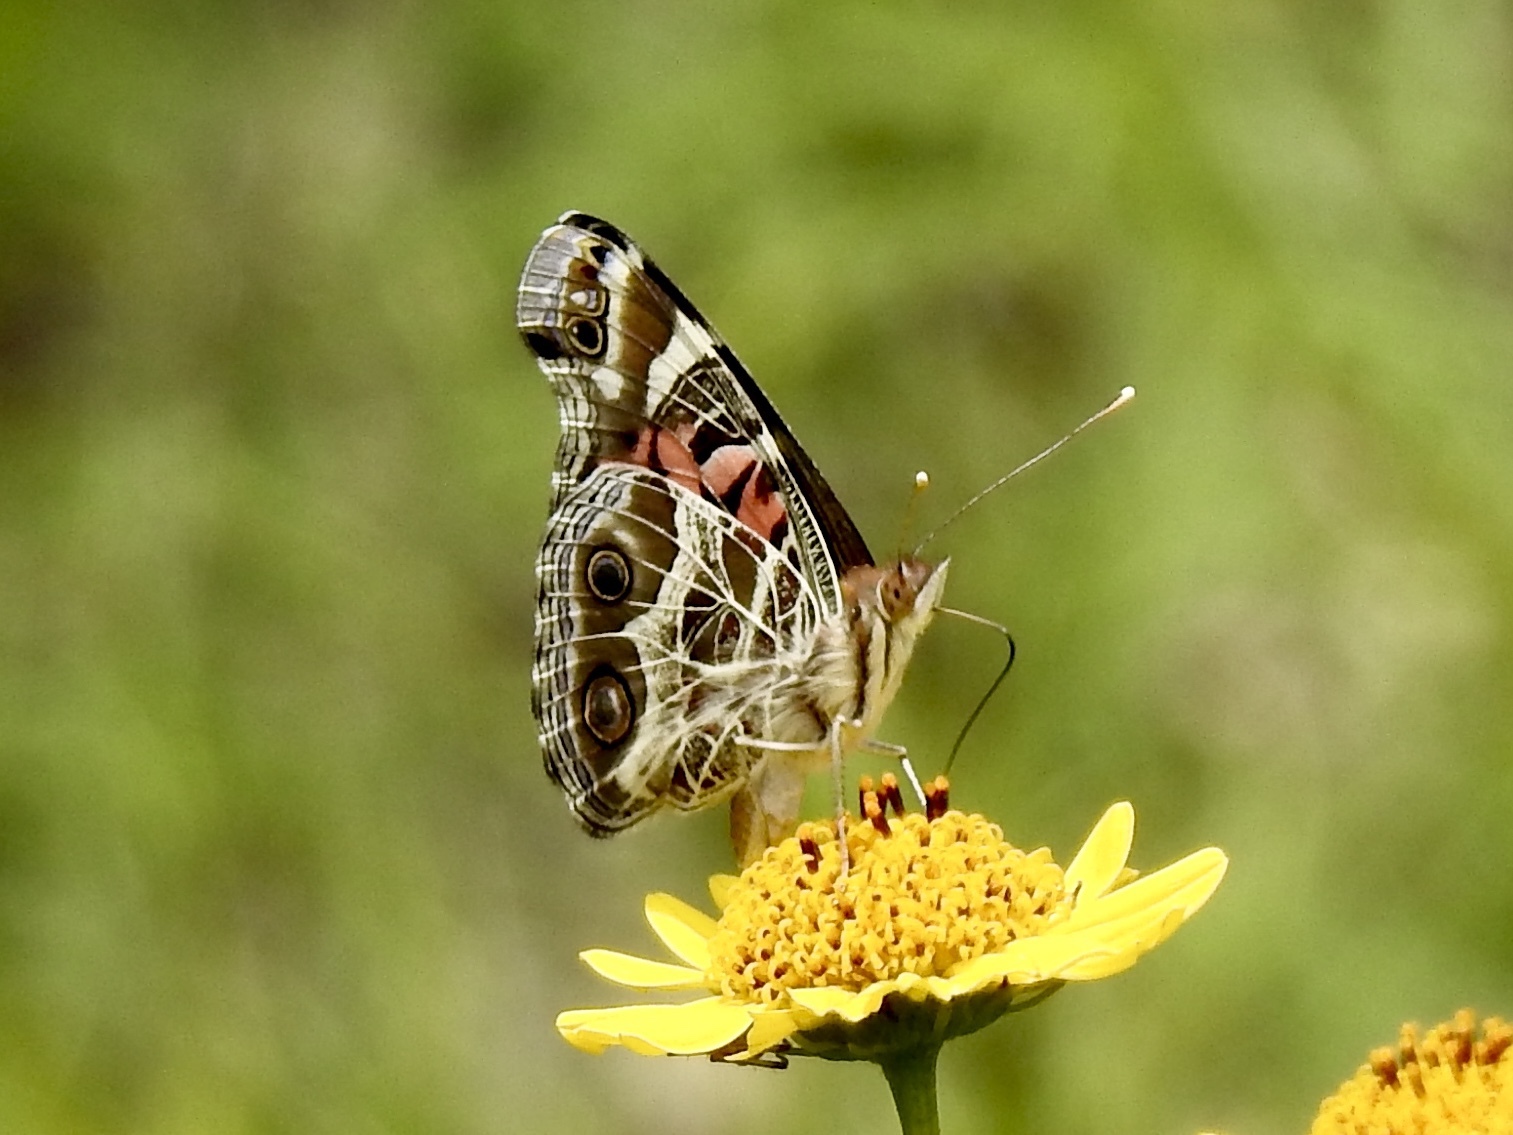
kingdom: Animalia
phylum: Arthropoda
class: Insecta
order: Lepidoptera
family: Nymphalidae
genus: Vanessa
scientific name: Vanessa virginiensis
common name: American lady
